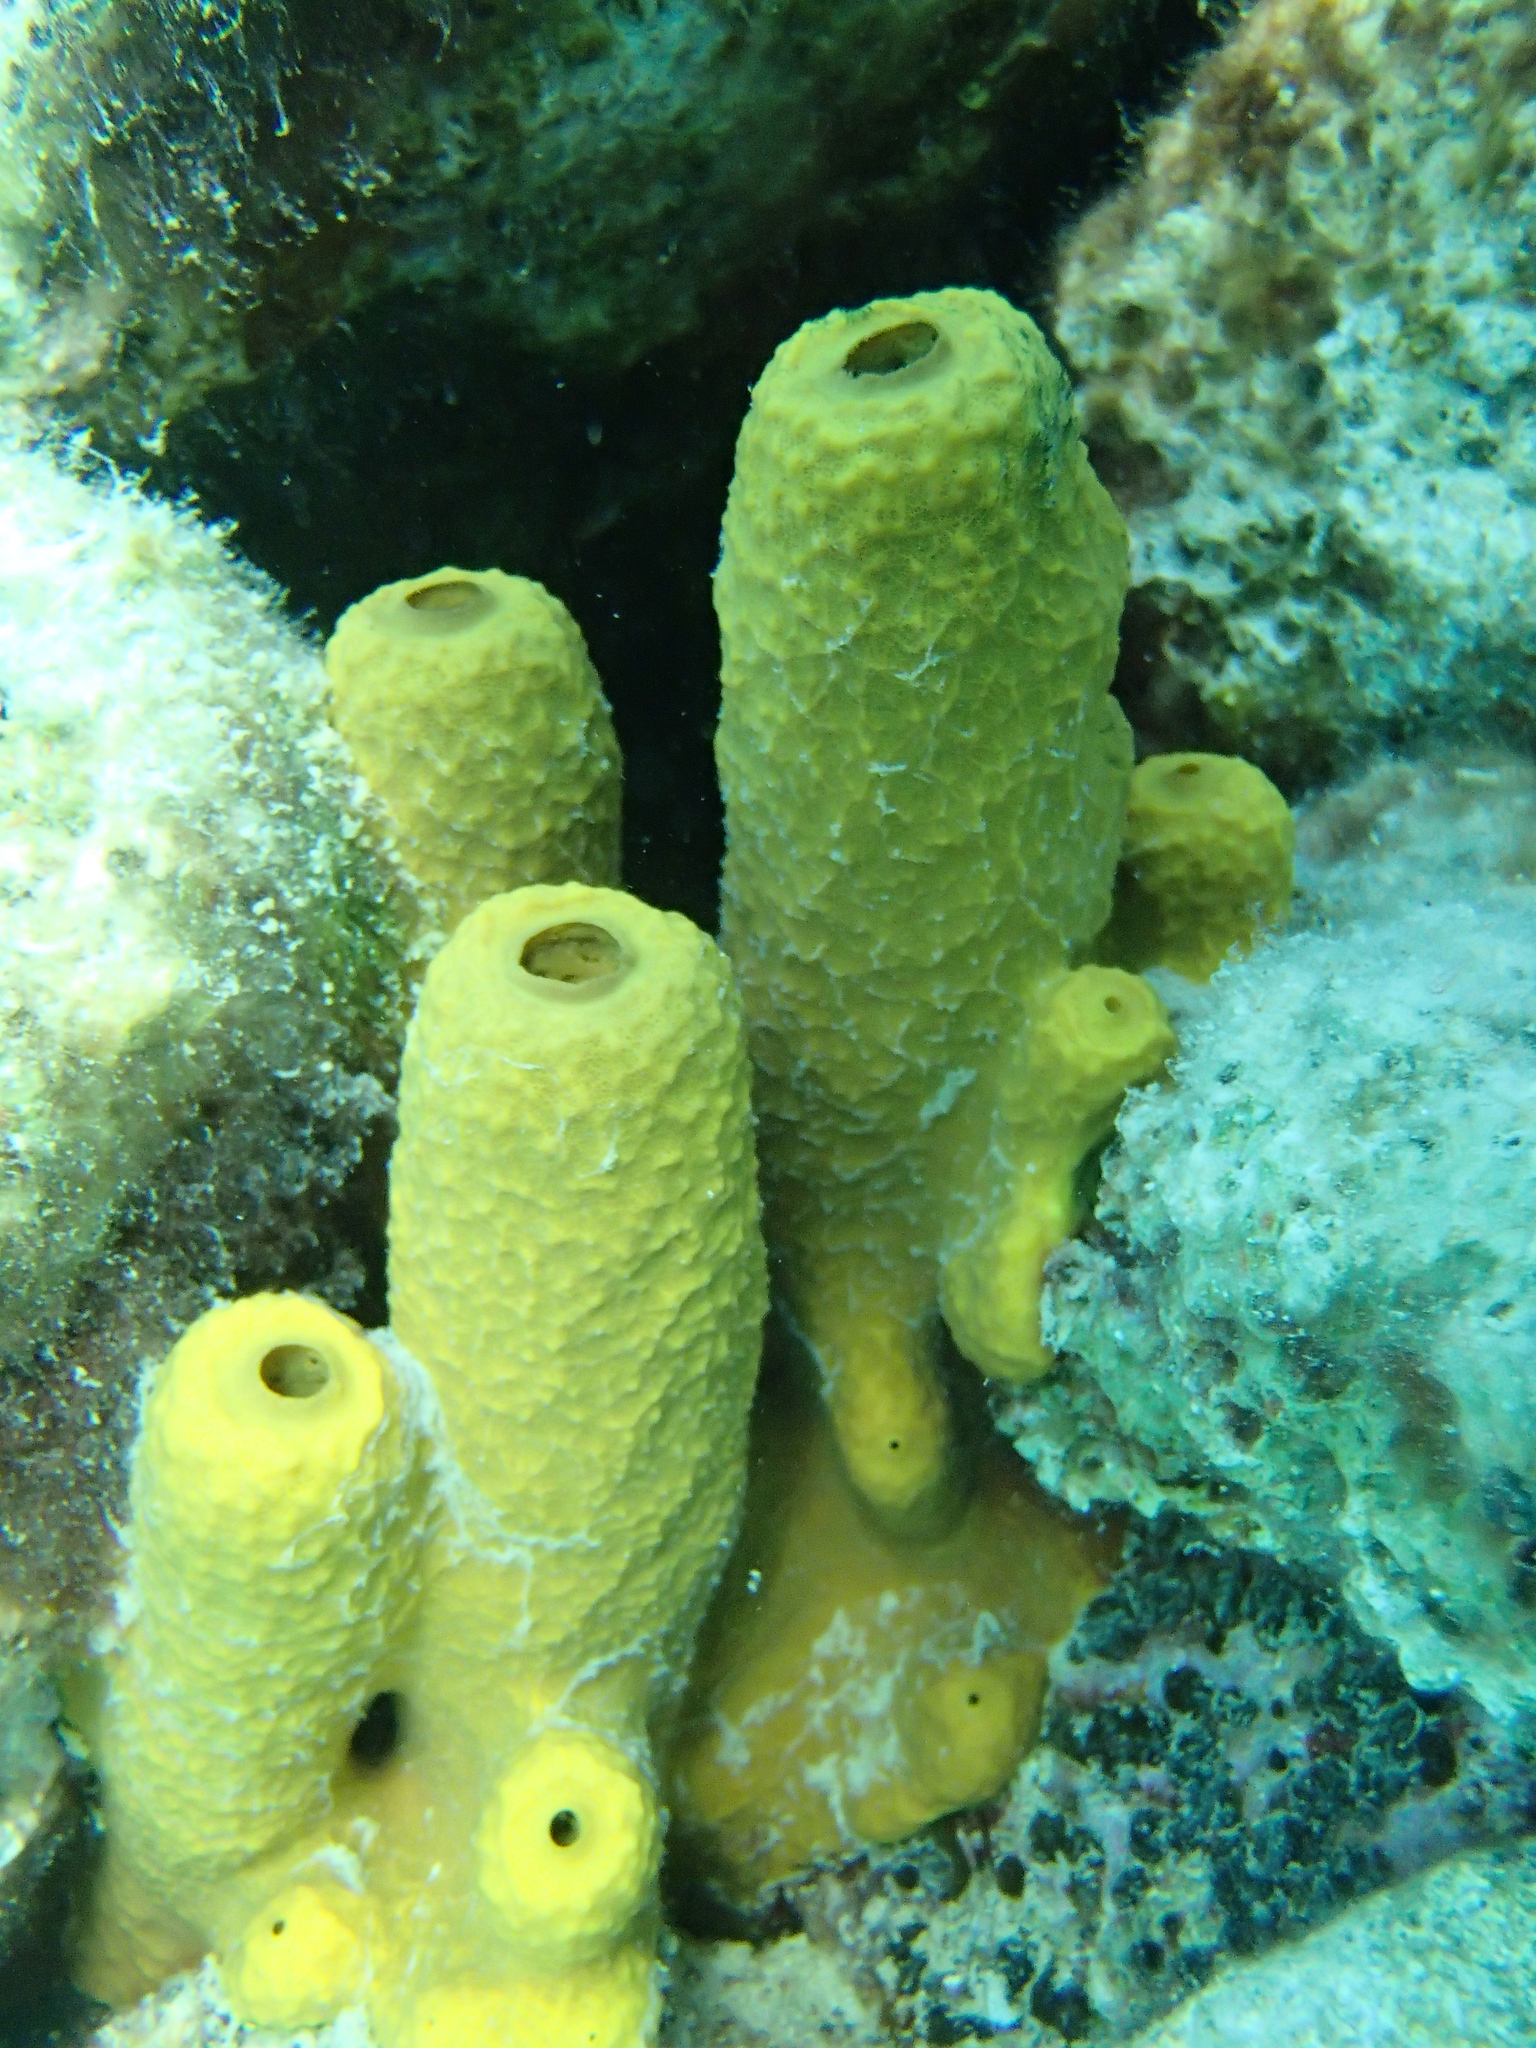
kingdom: Animalia
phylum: Porifera
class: Demospongiae
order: Verongiida
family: Aplysinidae
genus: Aplysina
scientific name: Aplysina aerophoba
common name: Aureate sponge
